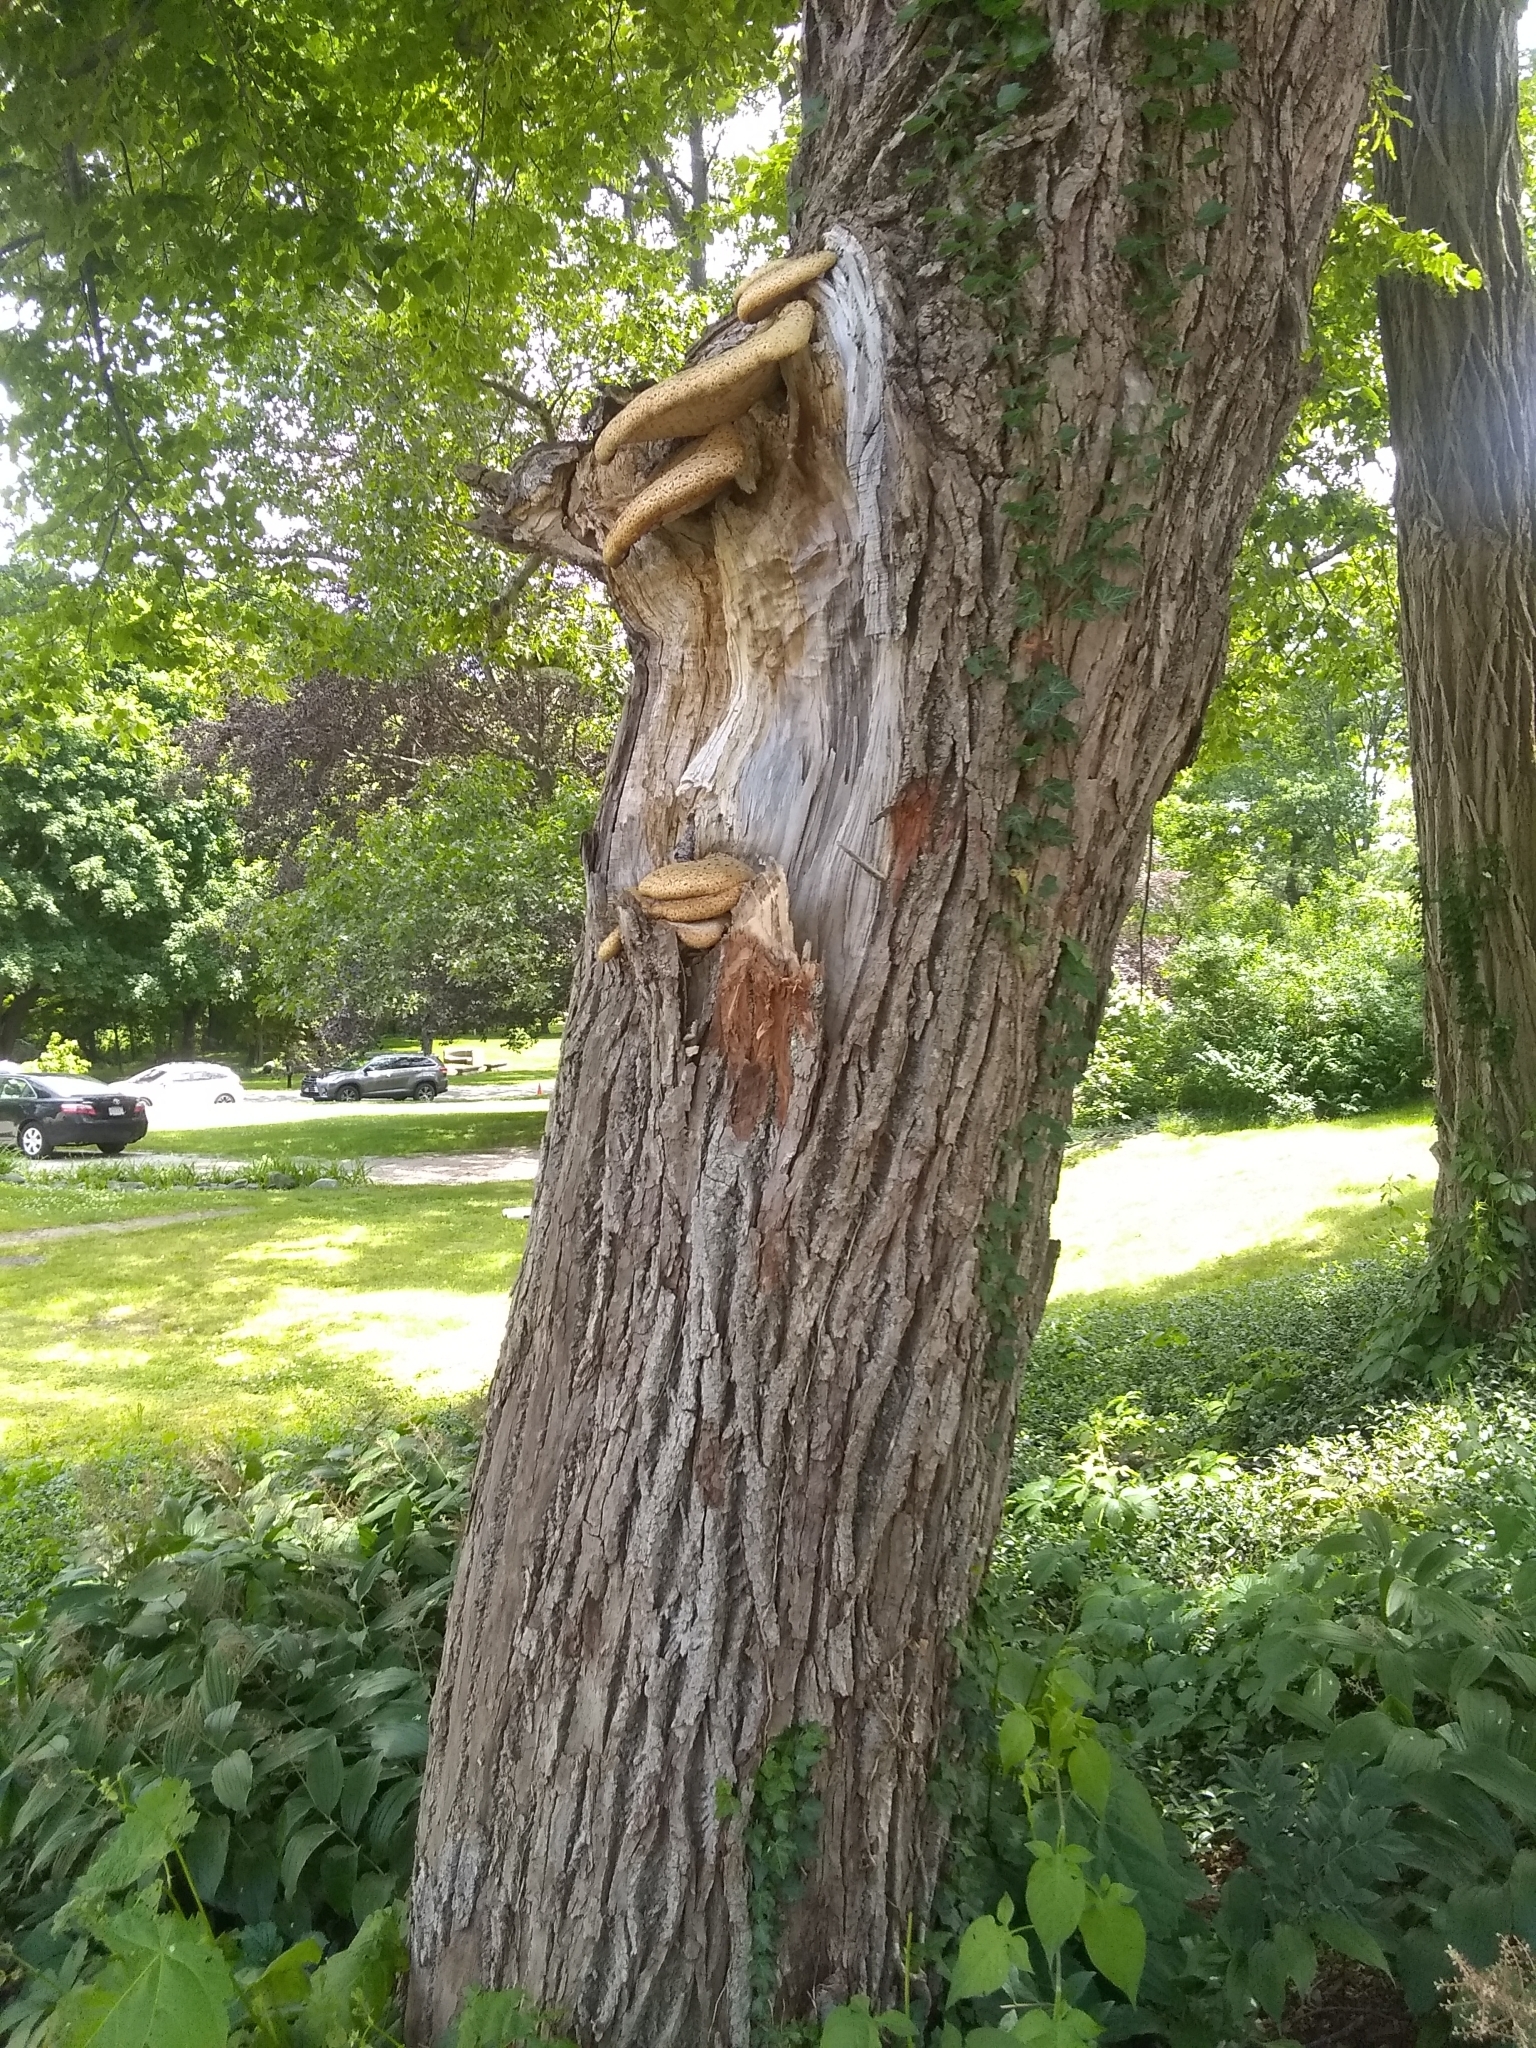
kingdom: Fungi
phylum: Basidiomycota
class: Agaricomycetes
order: Polyporales
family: Polyporaceae
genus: Cerioporus
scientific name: Cerioporus squamosus
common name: Dryad's saddle
